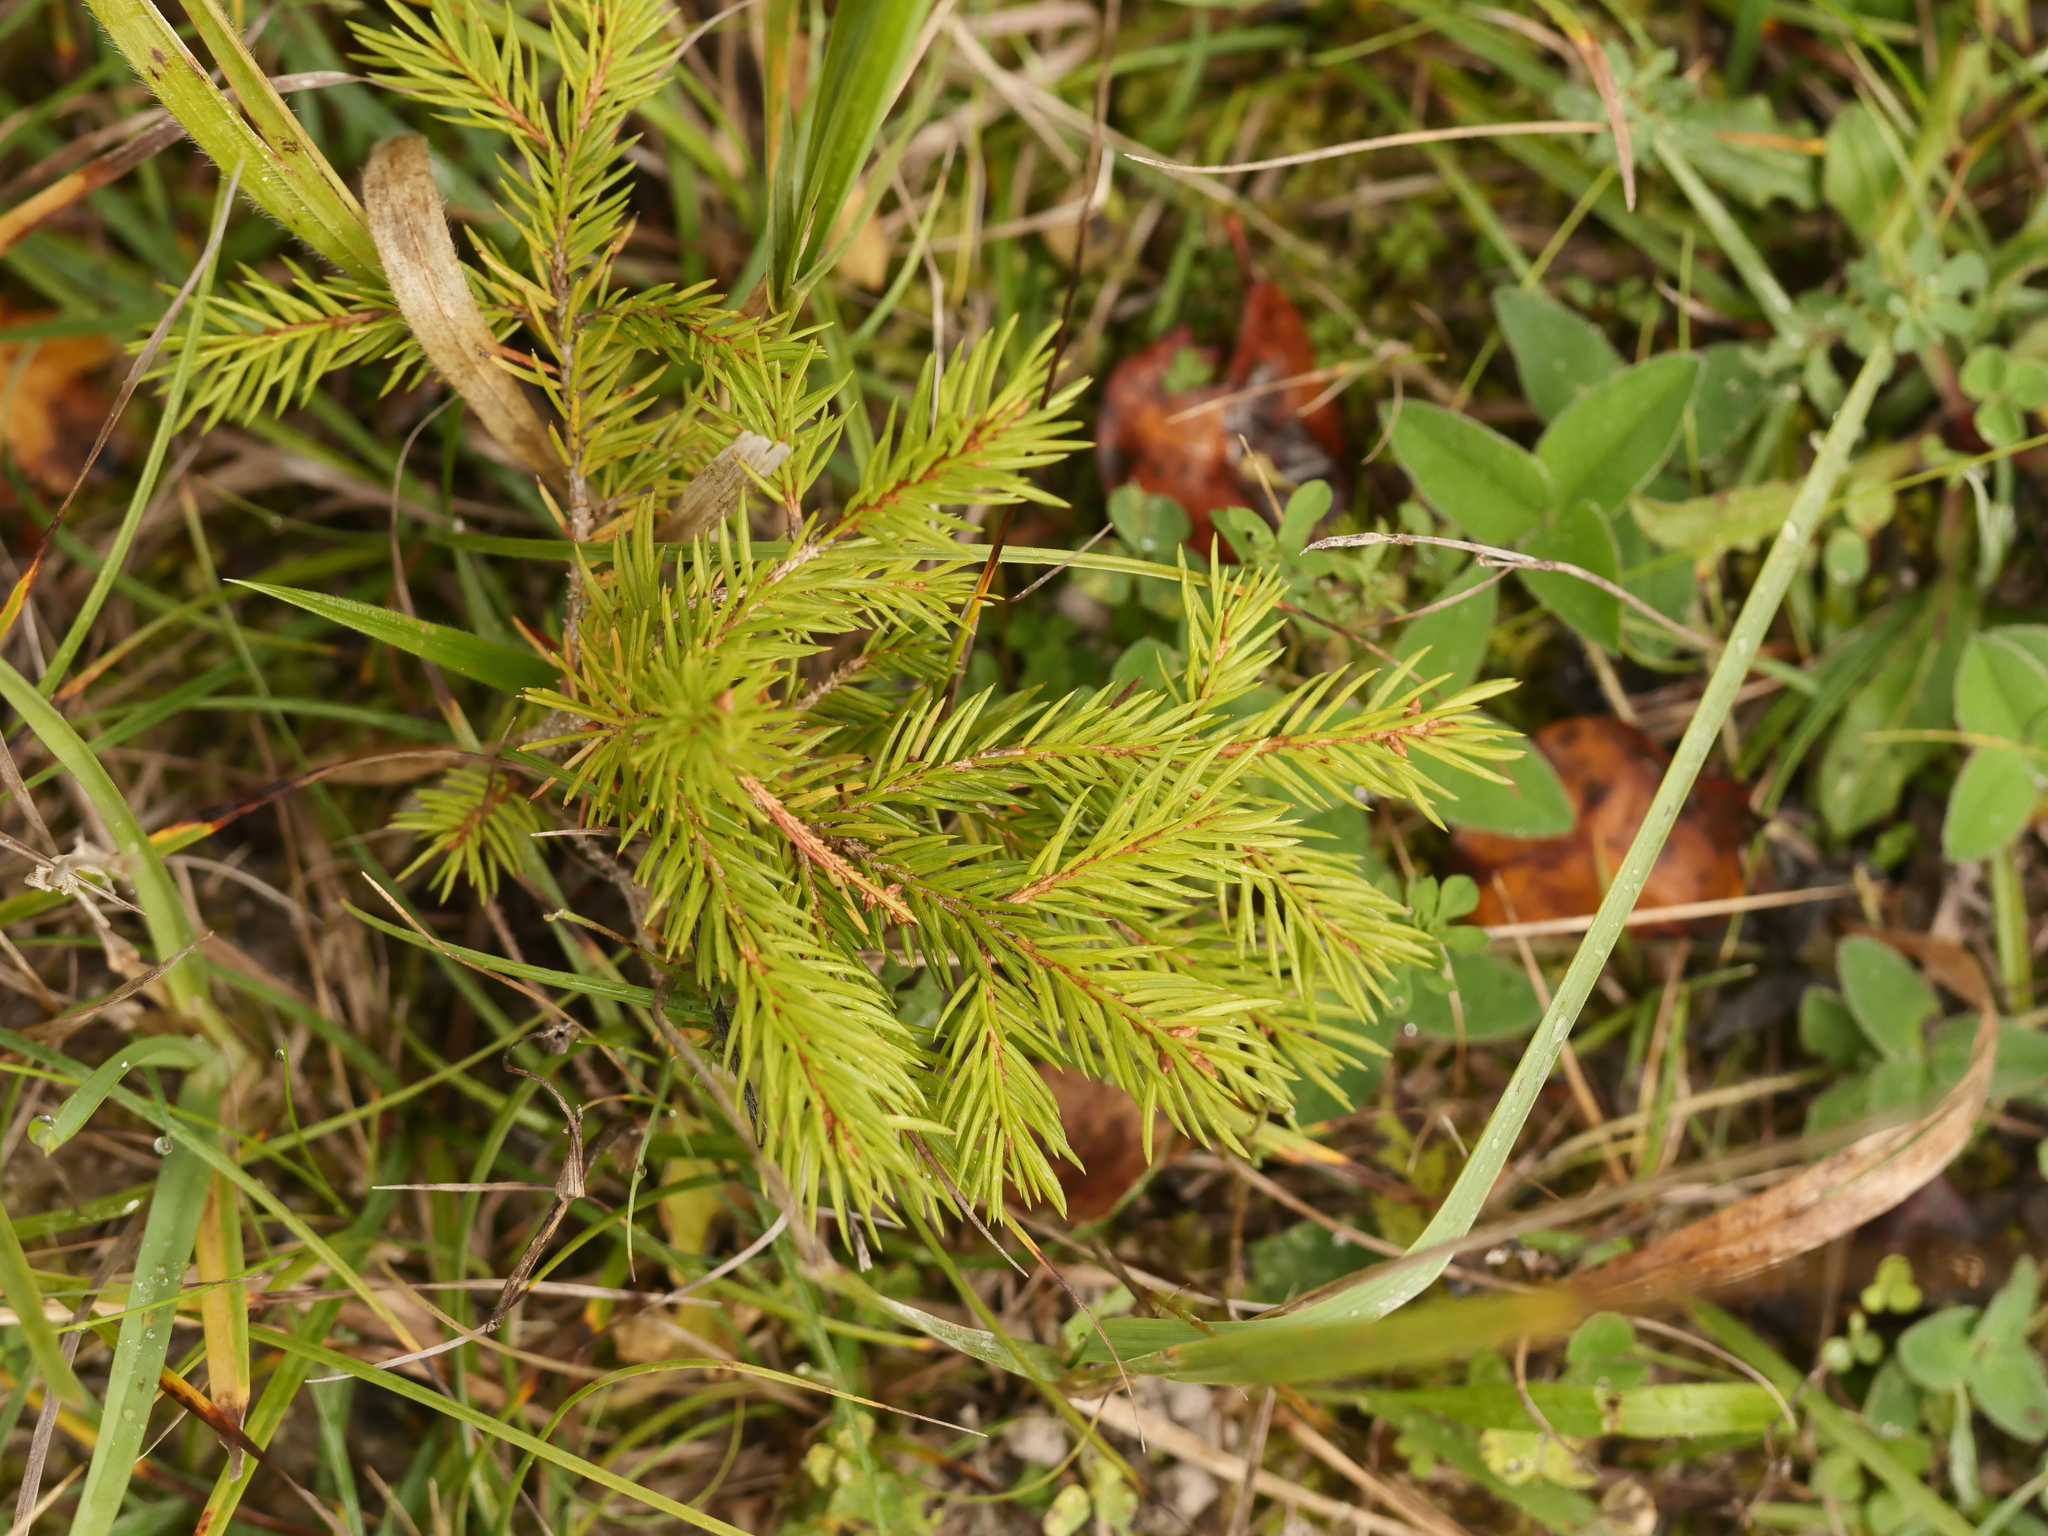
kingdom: Plantae
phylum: Tracheophyta
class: Pinopsida
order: Pinales
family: Pinaceae
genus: Picea
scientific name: Picea abies
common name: Norway spruce
